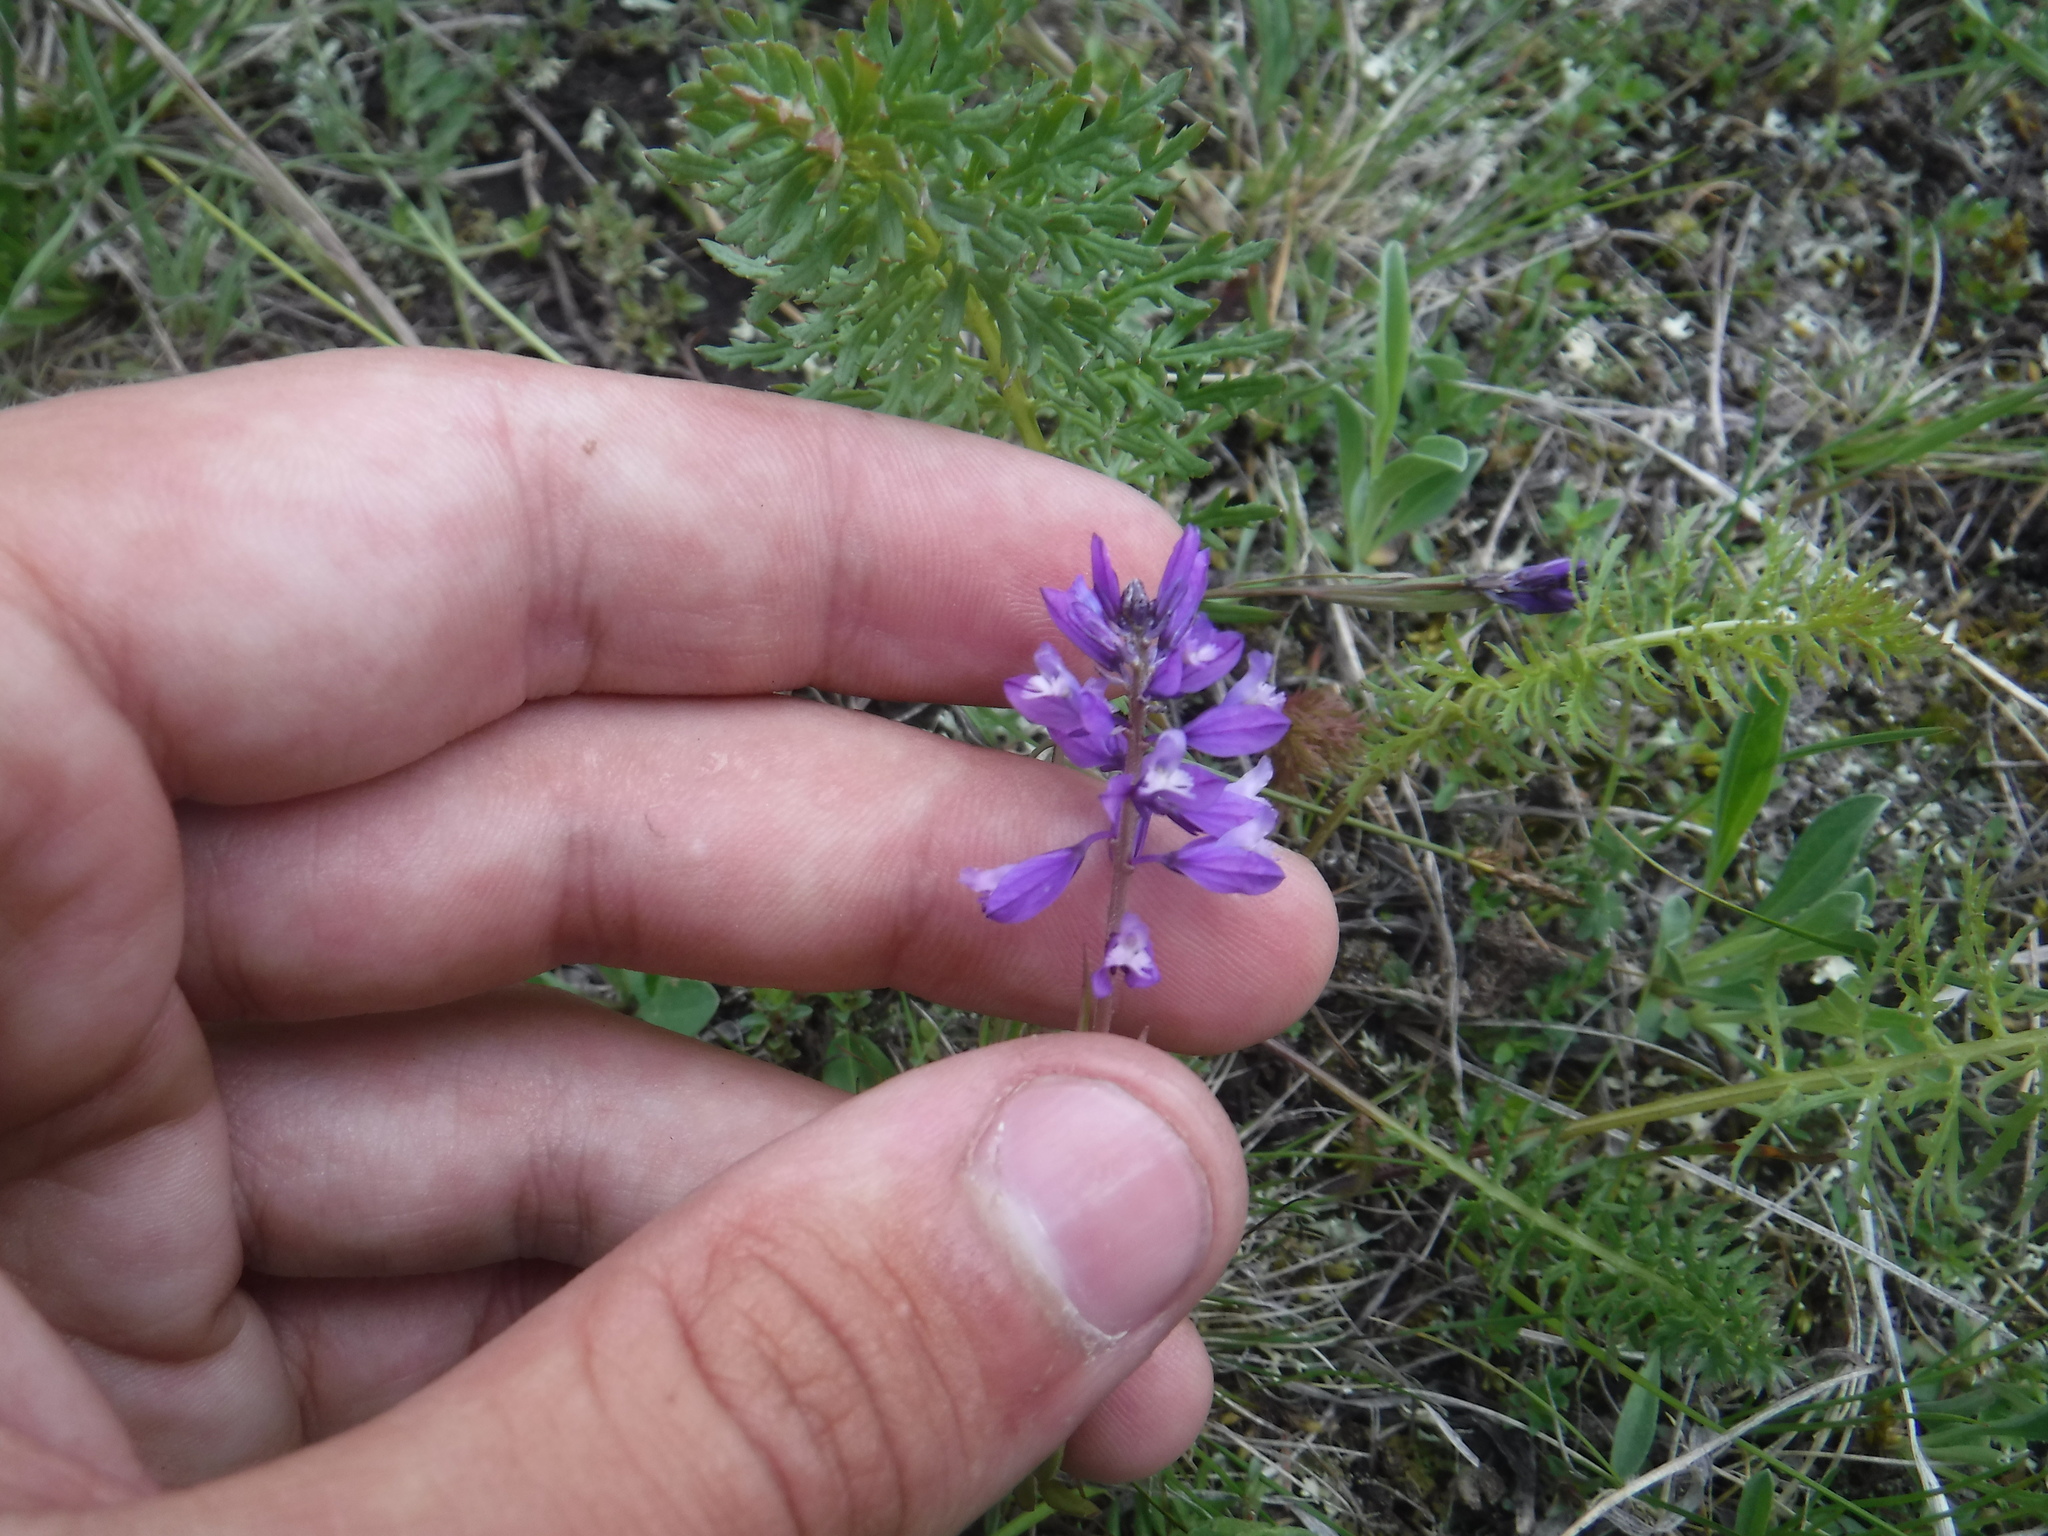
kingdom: Plantae
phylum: Tracheophyta
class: Magnoliopsida
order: Fabales
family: Polygalaceae
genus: Polygala
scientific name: Polygala comosa
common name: Tufted milkwort
